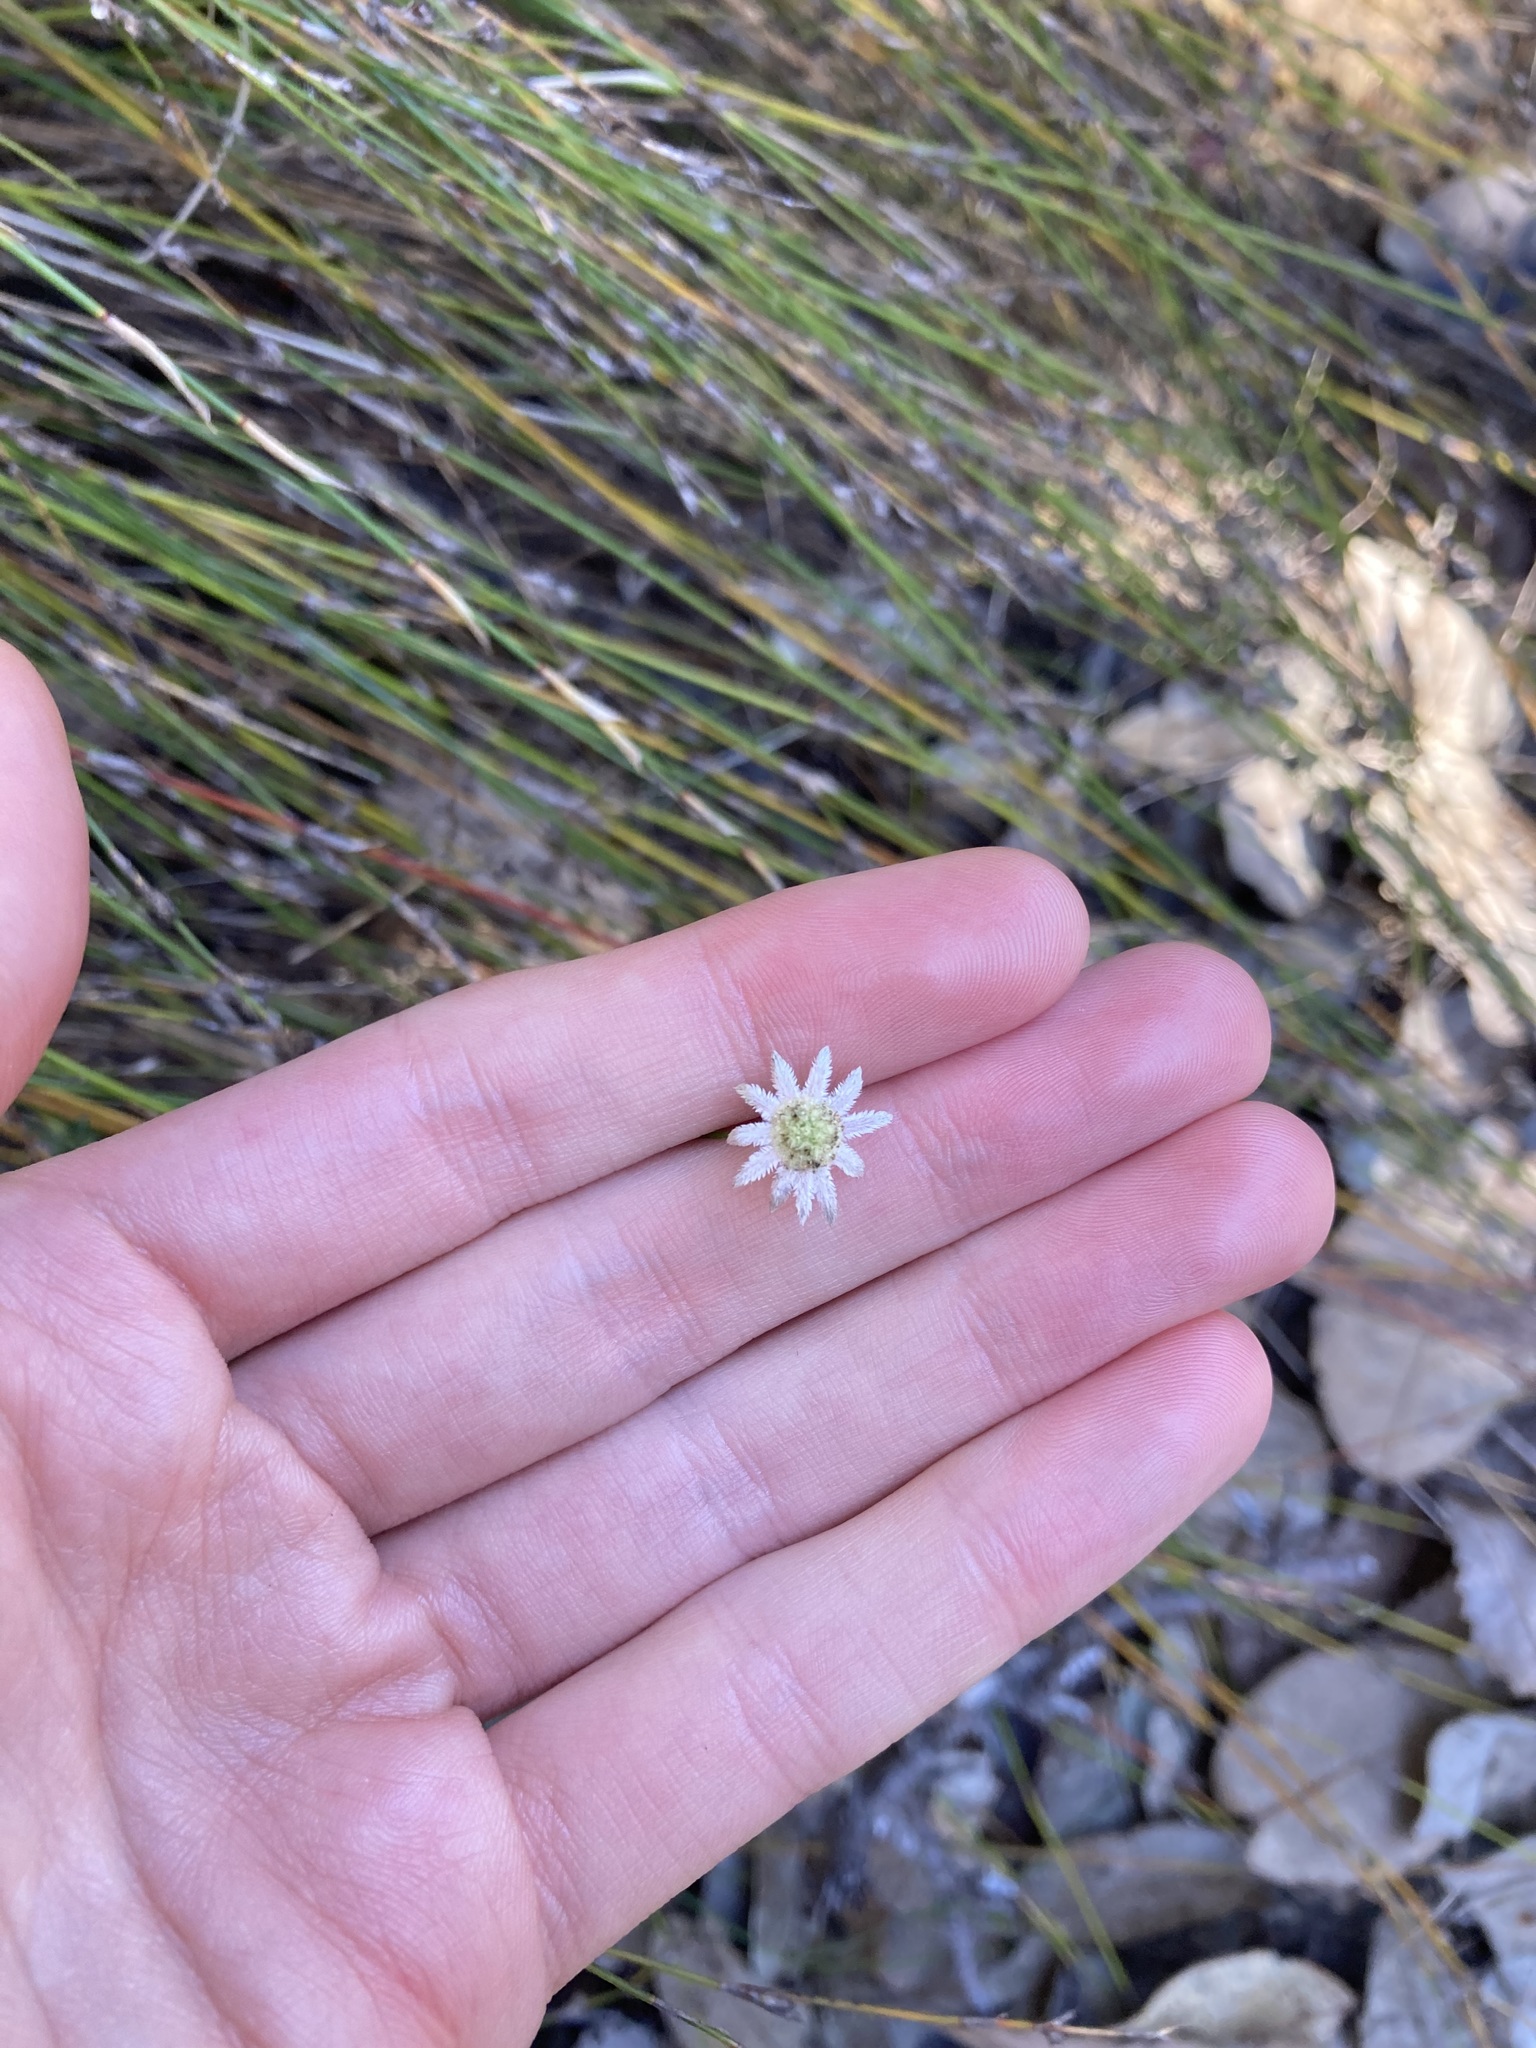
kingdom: Plantae
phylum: Tracheophyta
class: Magnoliopsida
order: Apiales
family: Apiaceae
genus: Actinotus
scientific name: Actinotus minor
